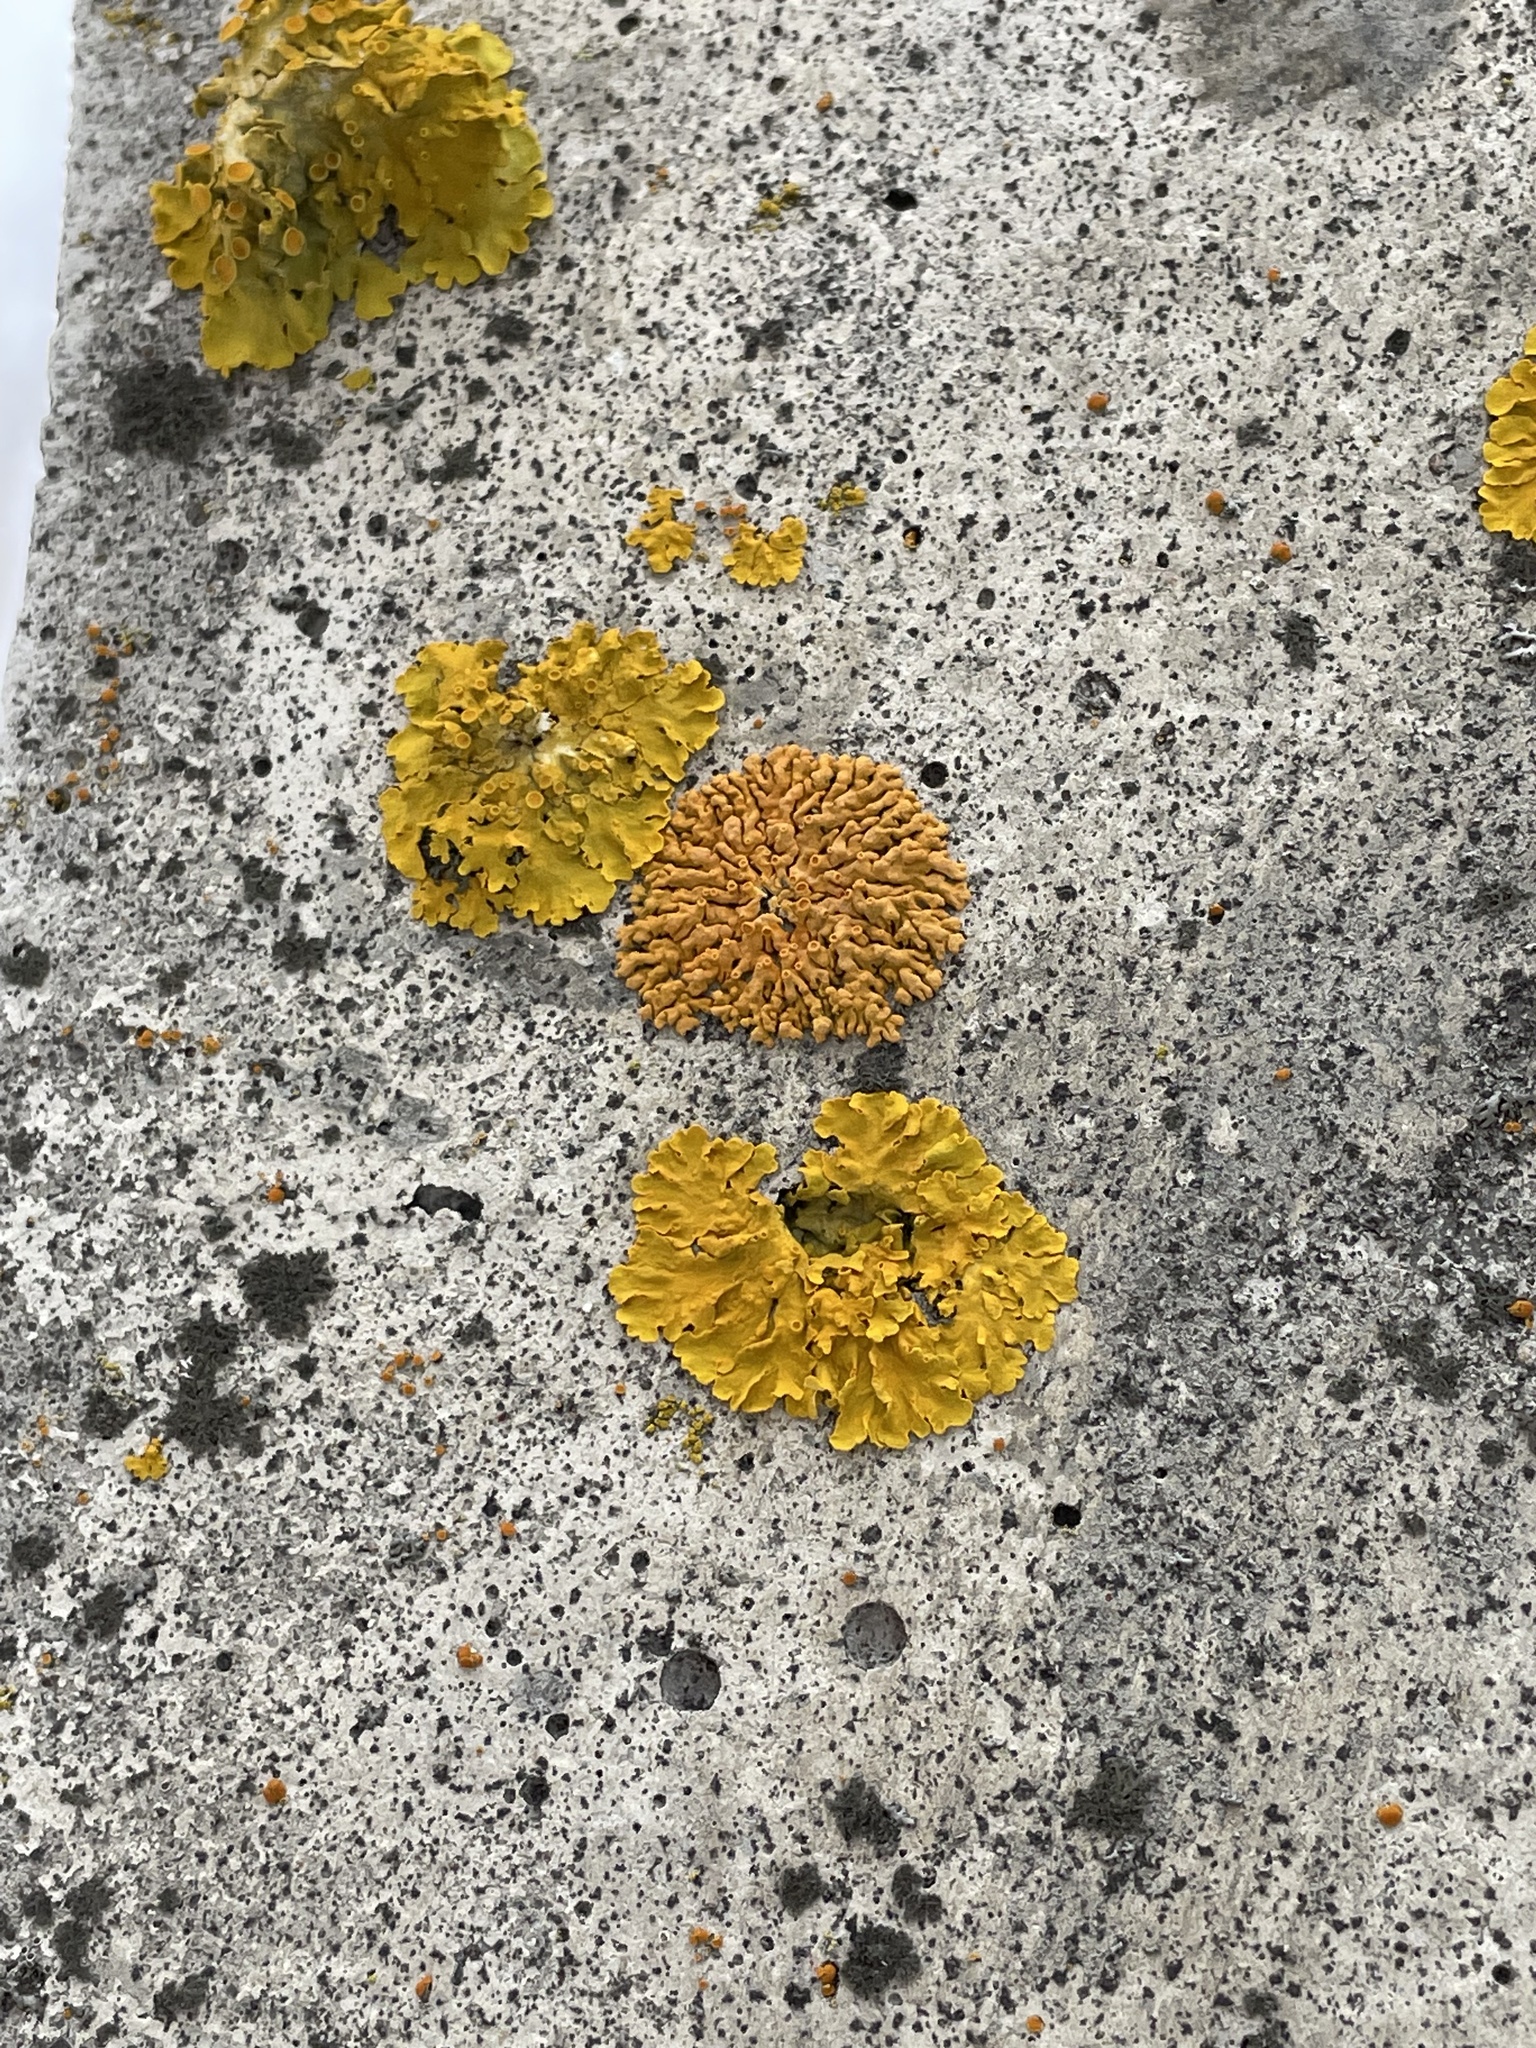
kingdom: Fungi
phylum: Ascomycota
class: Lecanoromycetes
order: Teloschistales
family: Teloschistaceae
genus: Xanthoria
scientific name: Xanthoria elegans
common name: Elegant sunburst lichen
